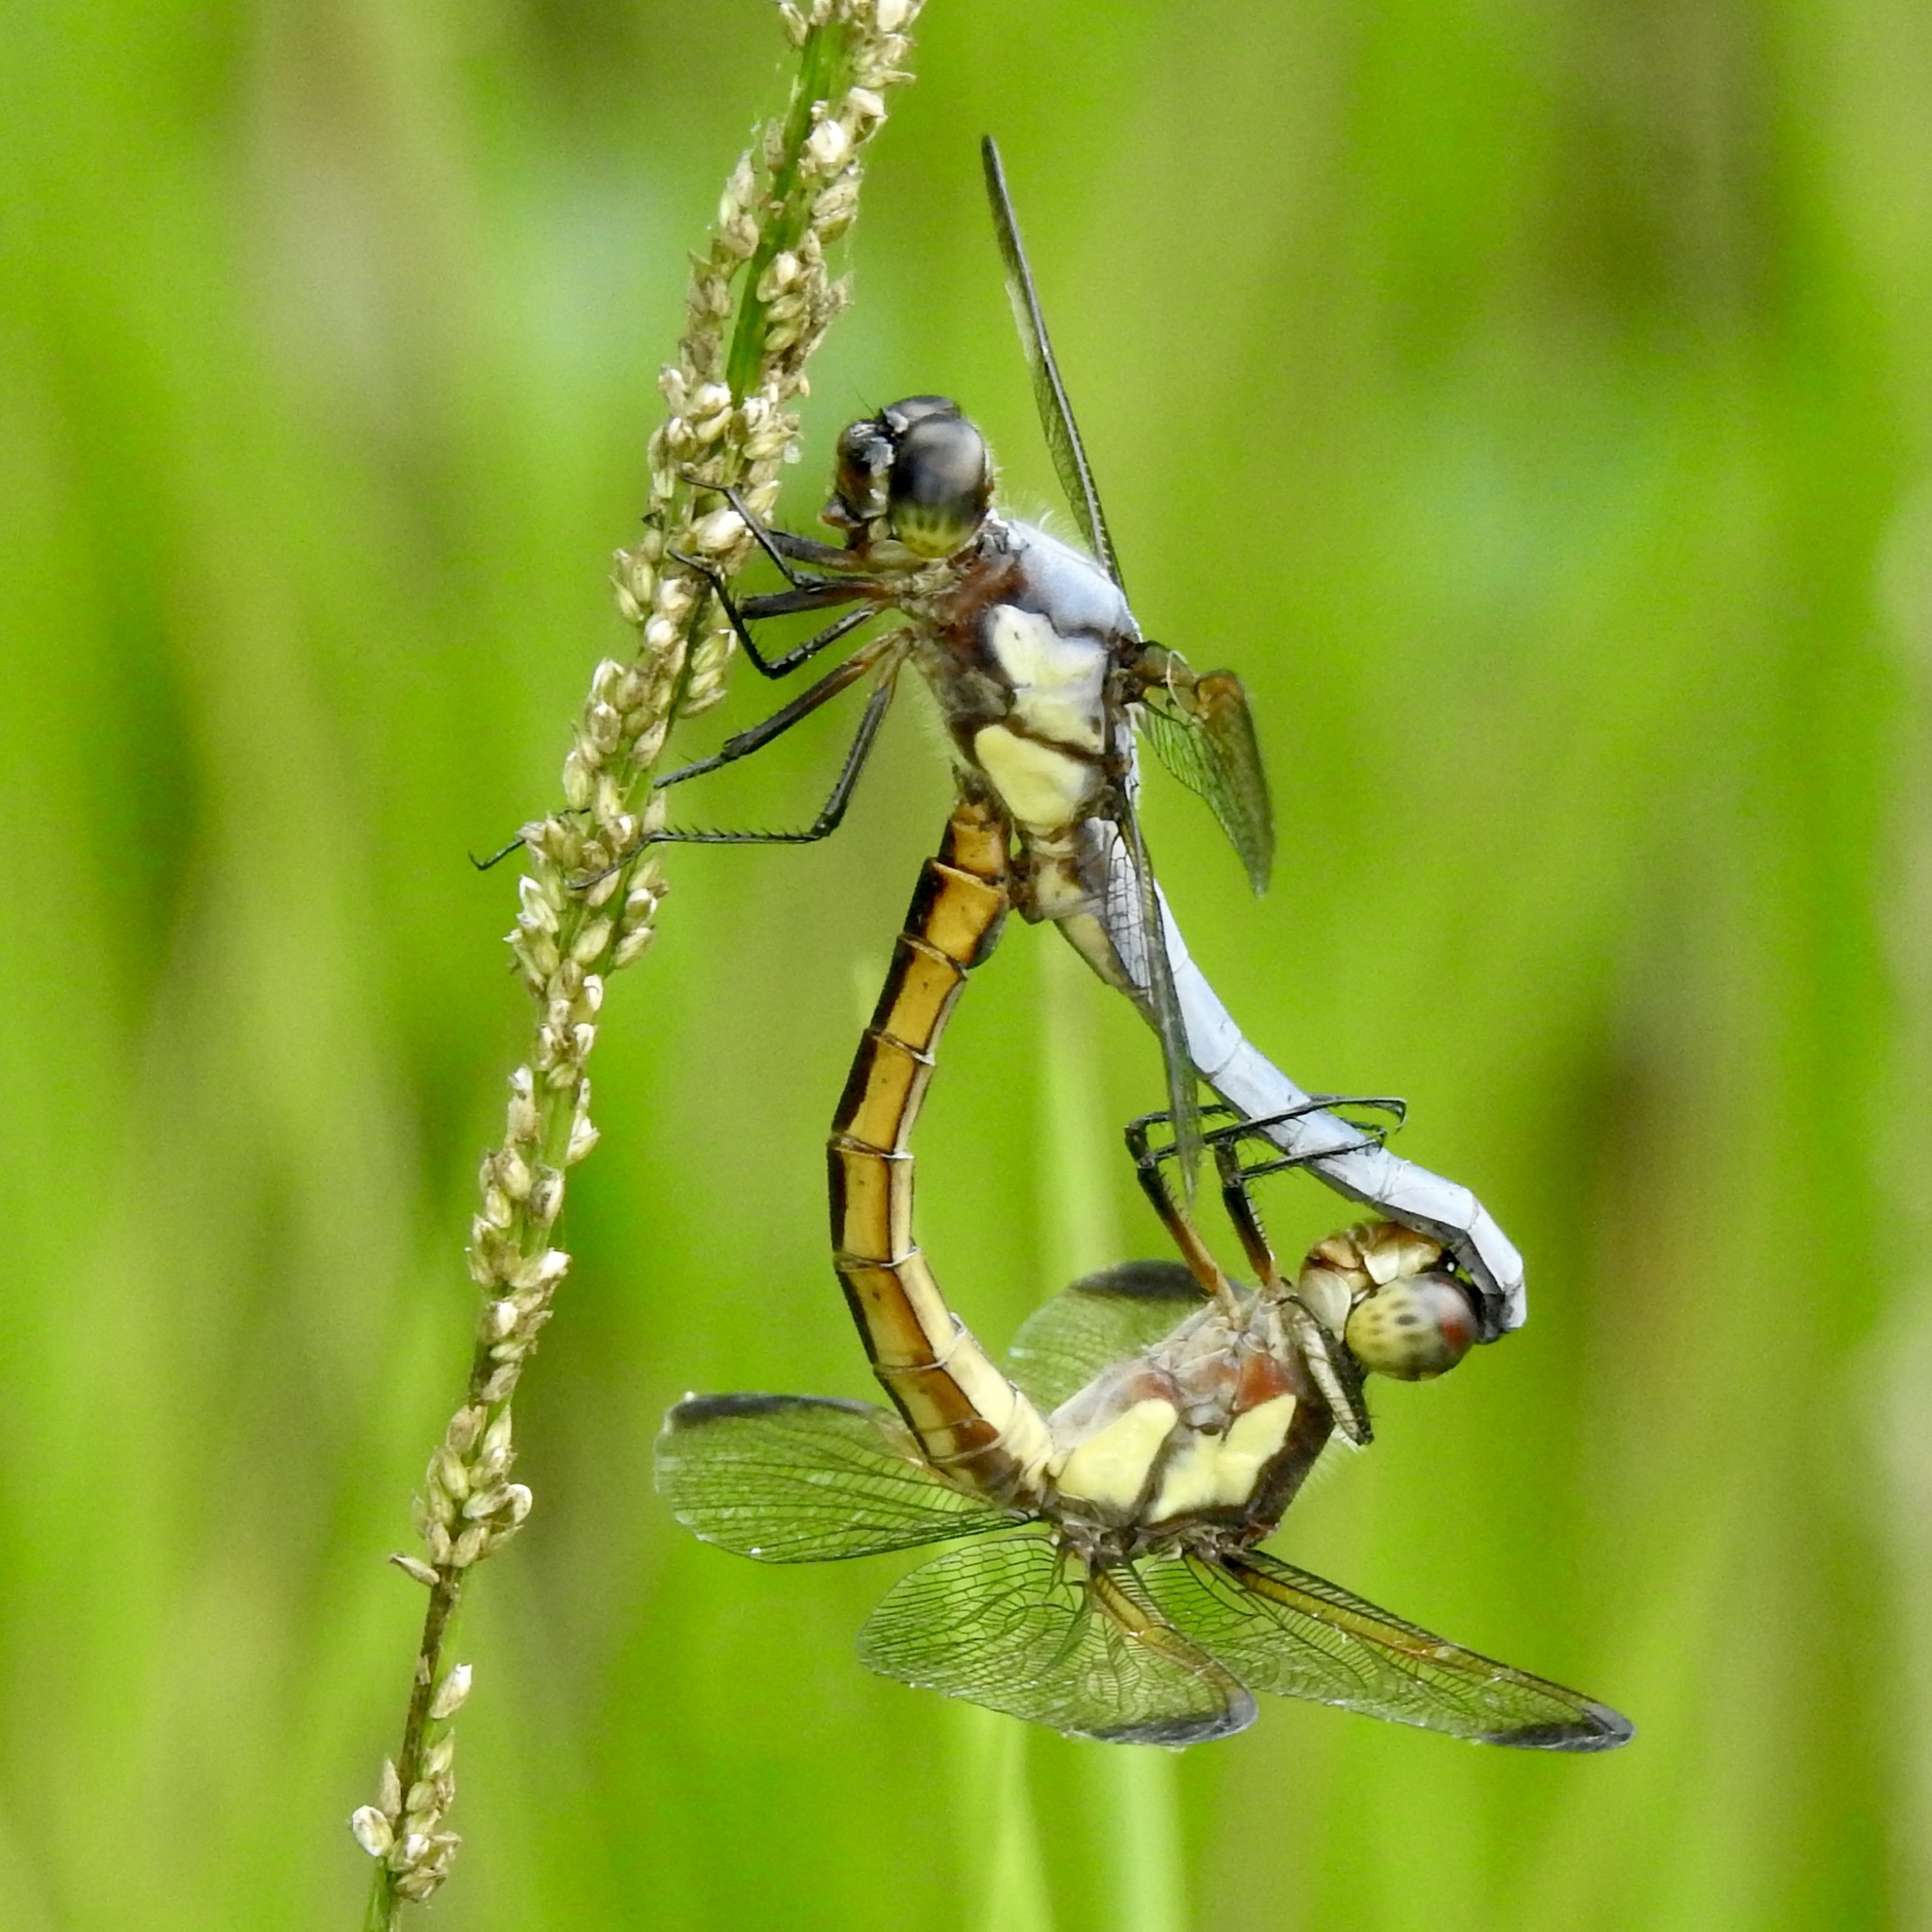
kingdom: Animalia
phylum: Arthropoda
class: Insecta
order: Odonata
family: Libellulidae
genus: Libellula
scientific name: Libellula flavida
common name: Yellow-sided skimmer
